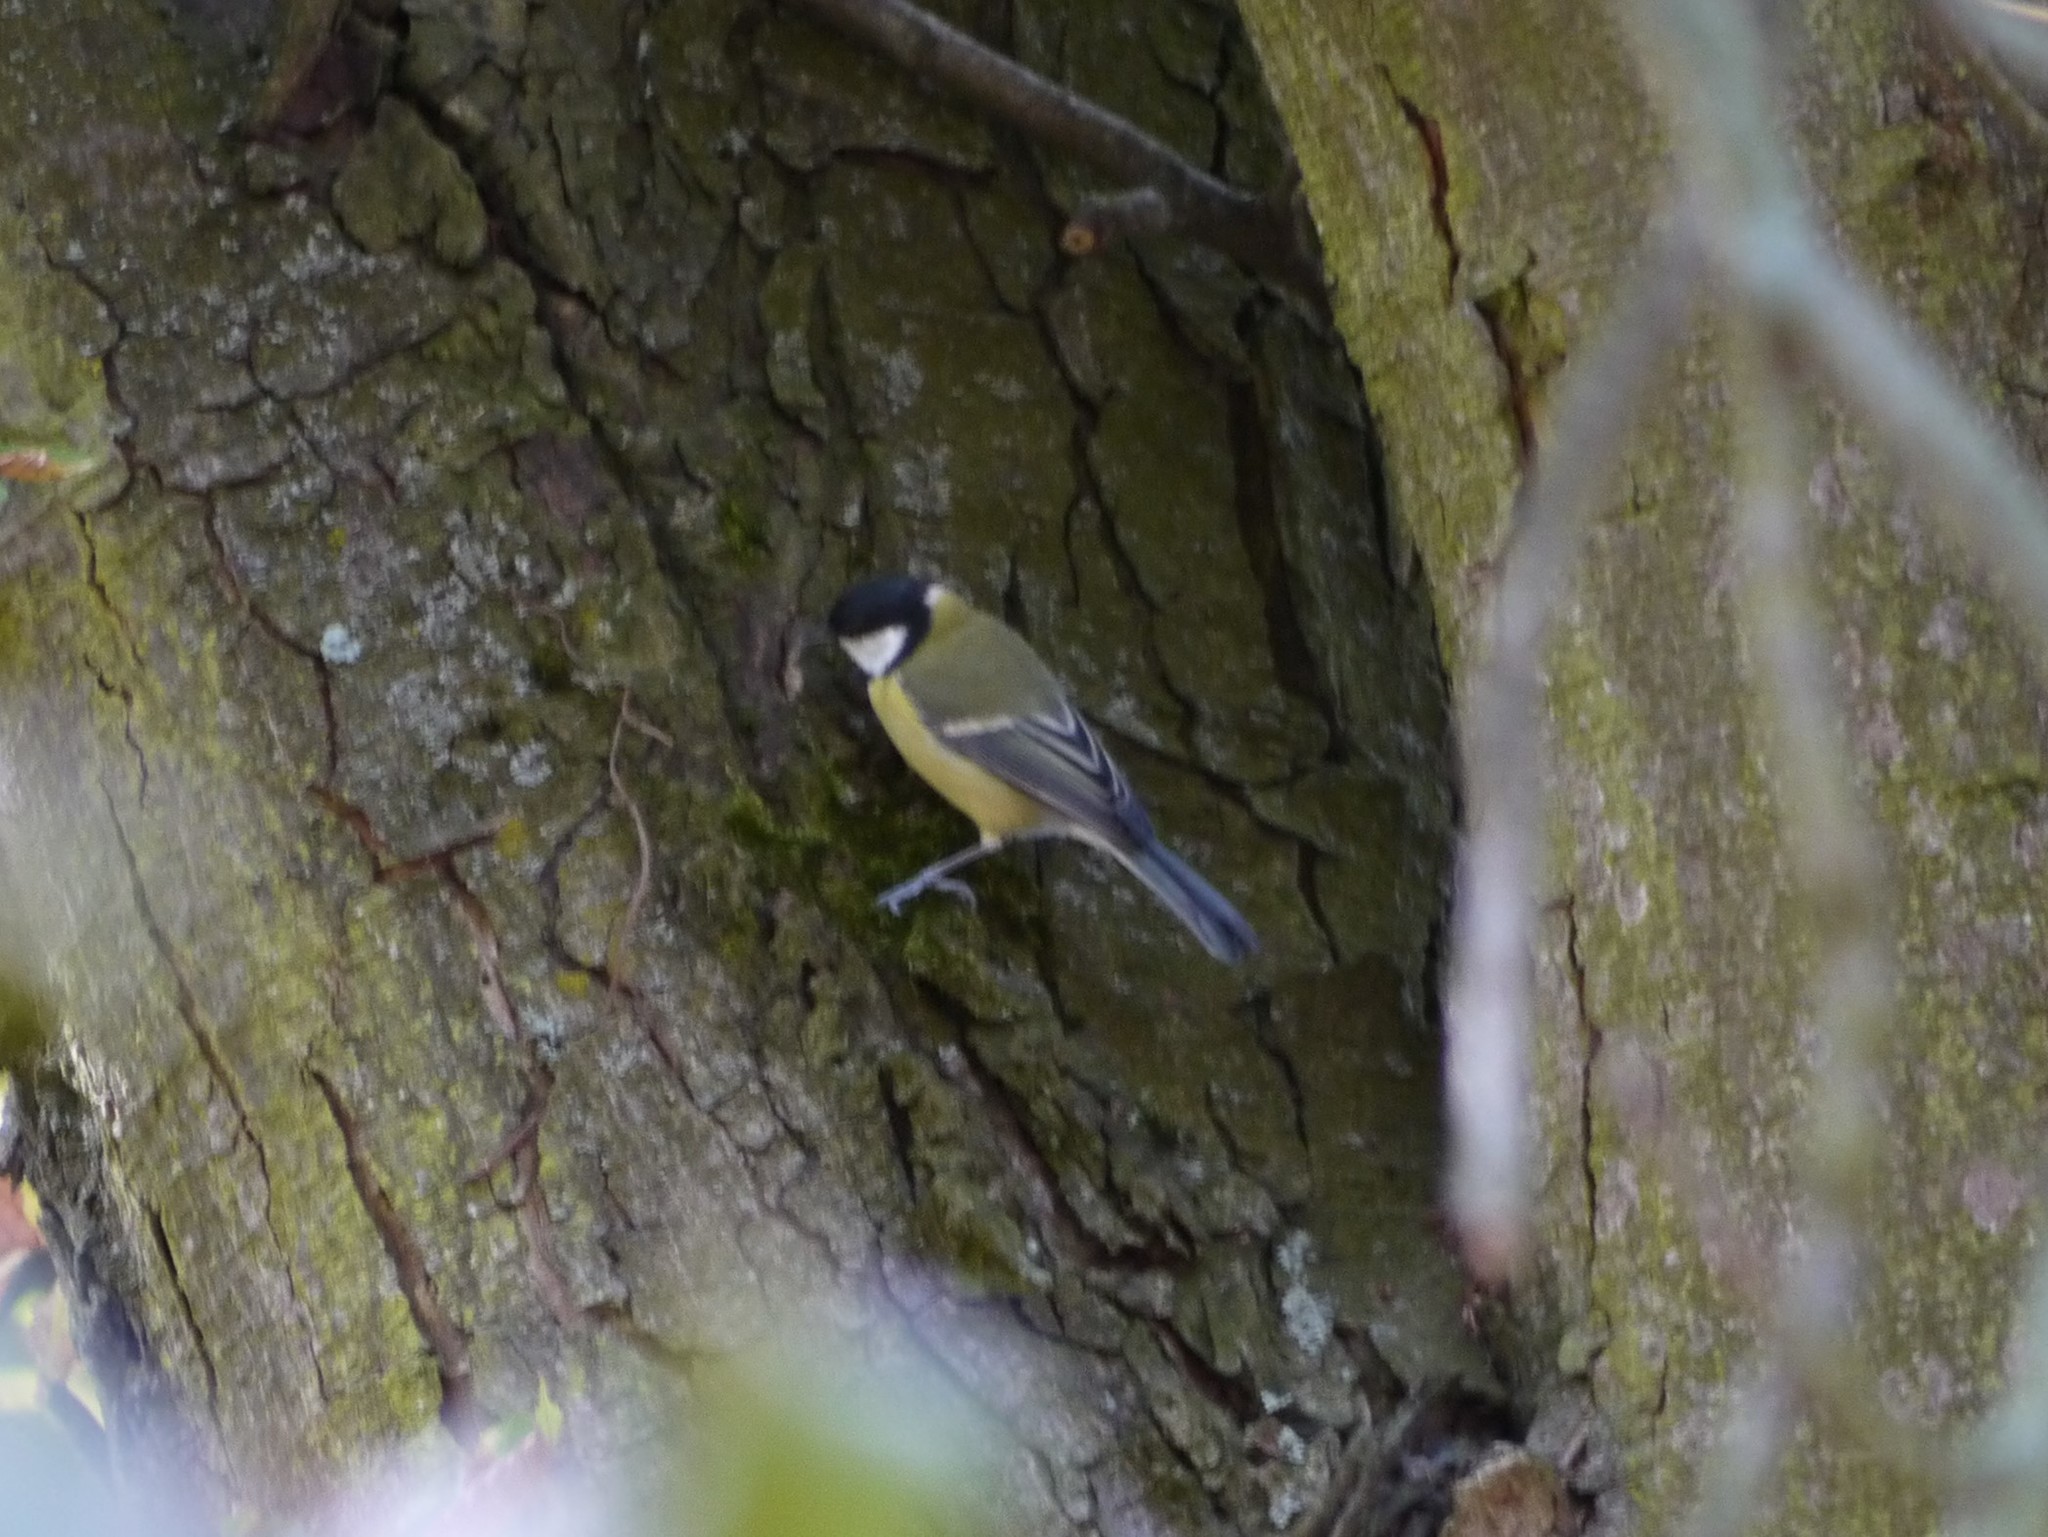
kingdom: Animalia
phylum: Chordata
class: Aves
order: Passeriformes
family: Paridae
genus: Parus
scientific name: Parus major
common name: Great tit
